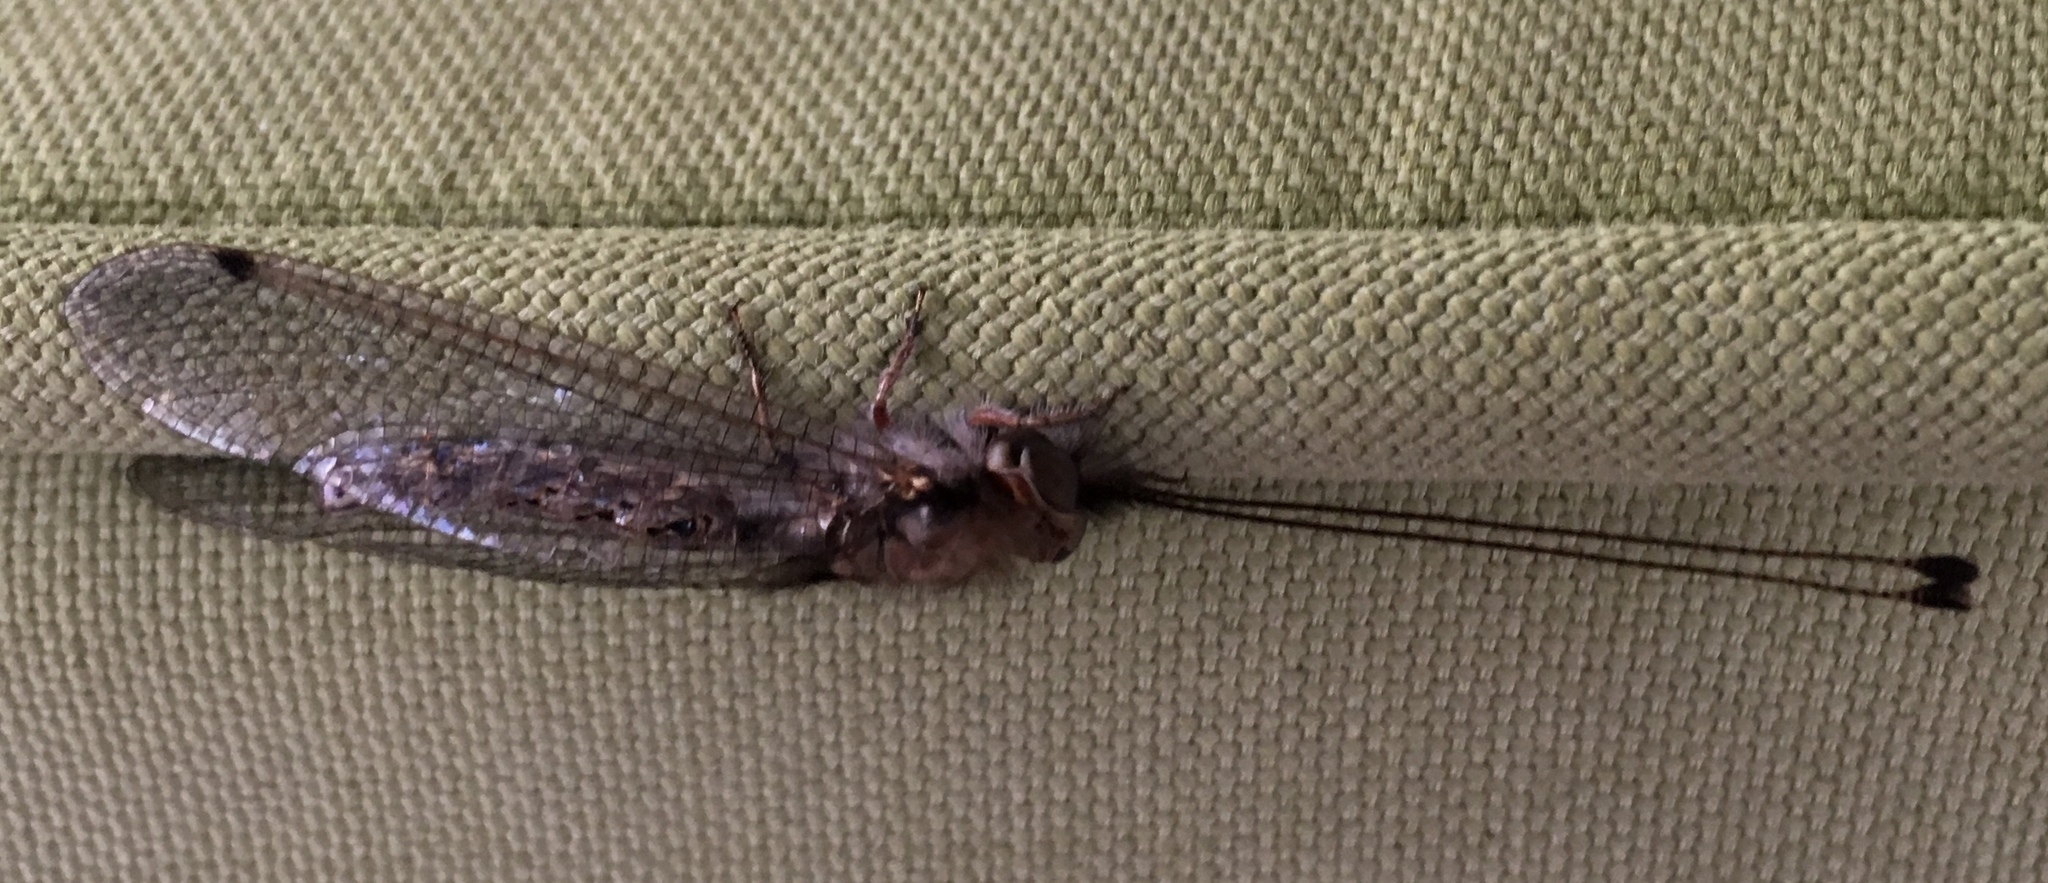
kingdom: Animalia
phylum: Arthropoda
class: Insecta
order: Neuroptera
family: Ascalaphidae
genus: Ululodes
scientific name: Ululodes macleayanus
